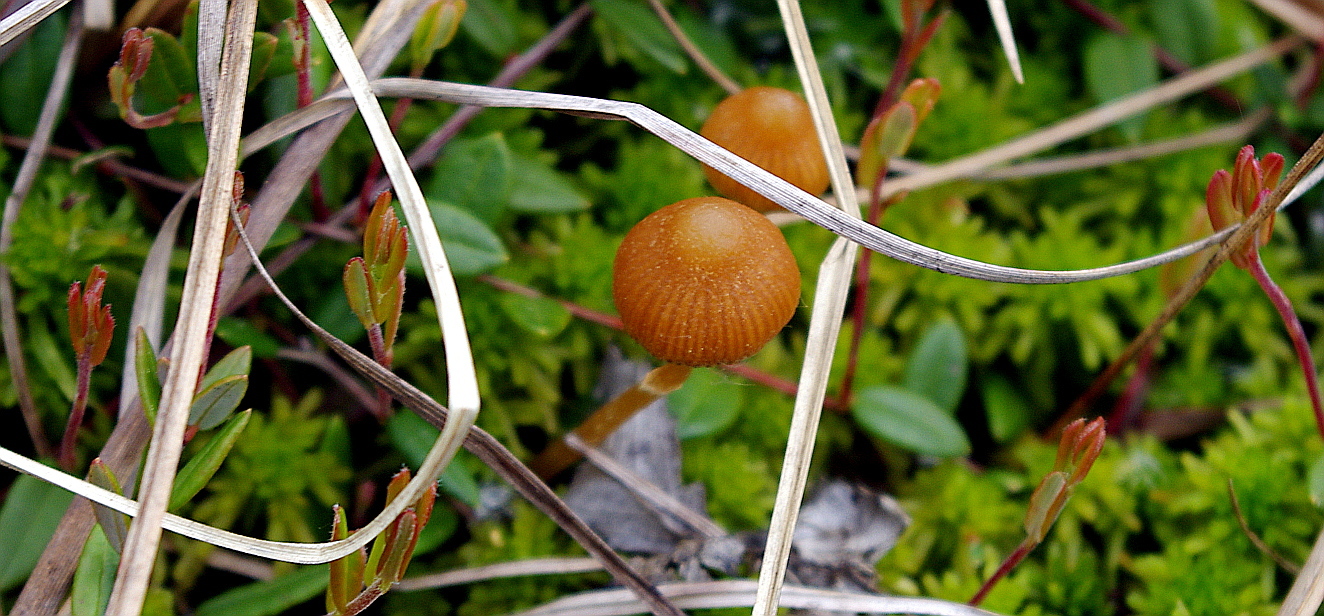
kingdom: Fungi
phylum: Basidiomycota
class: Agaricomycetes
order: Agaricales
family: Hymenogastraceae
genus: Galerina
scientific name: Galerina
